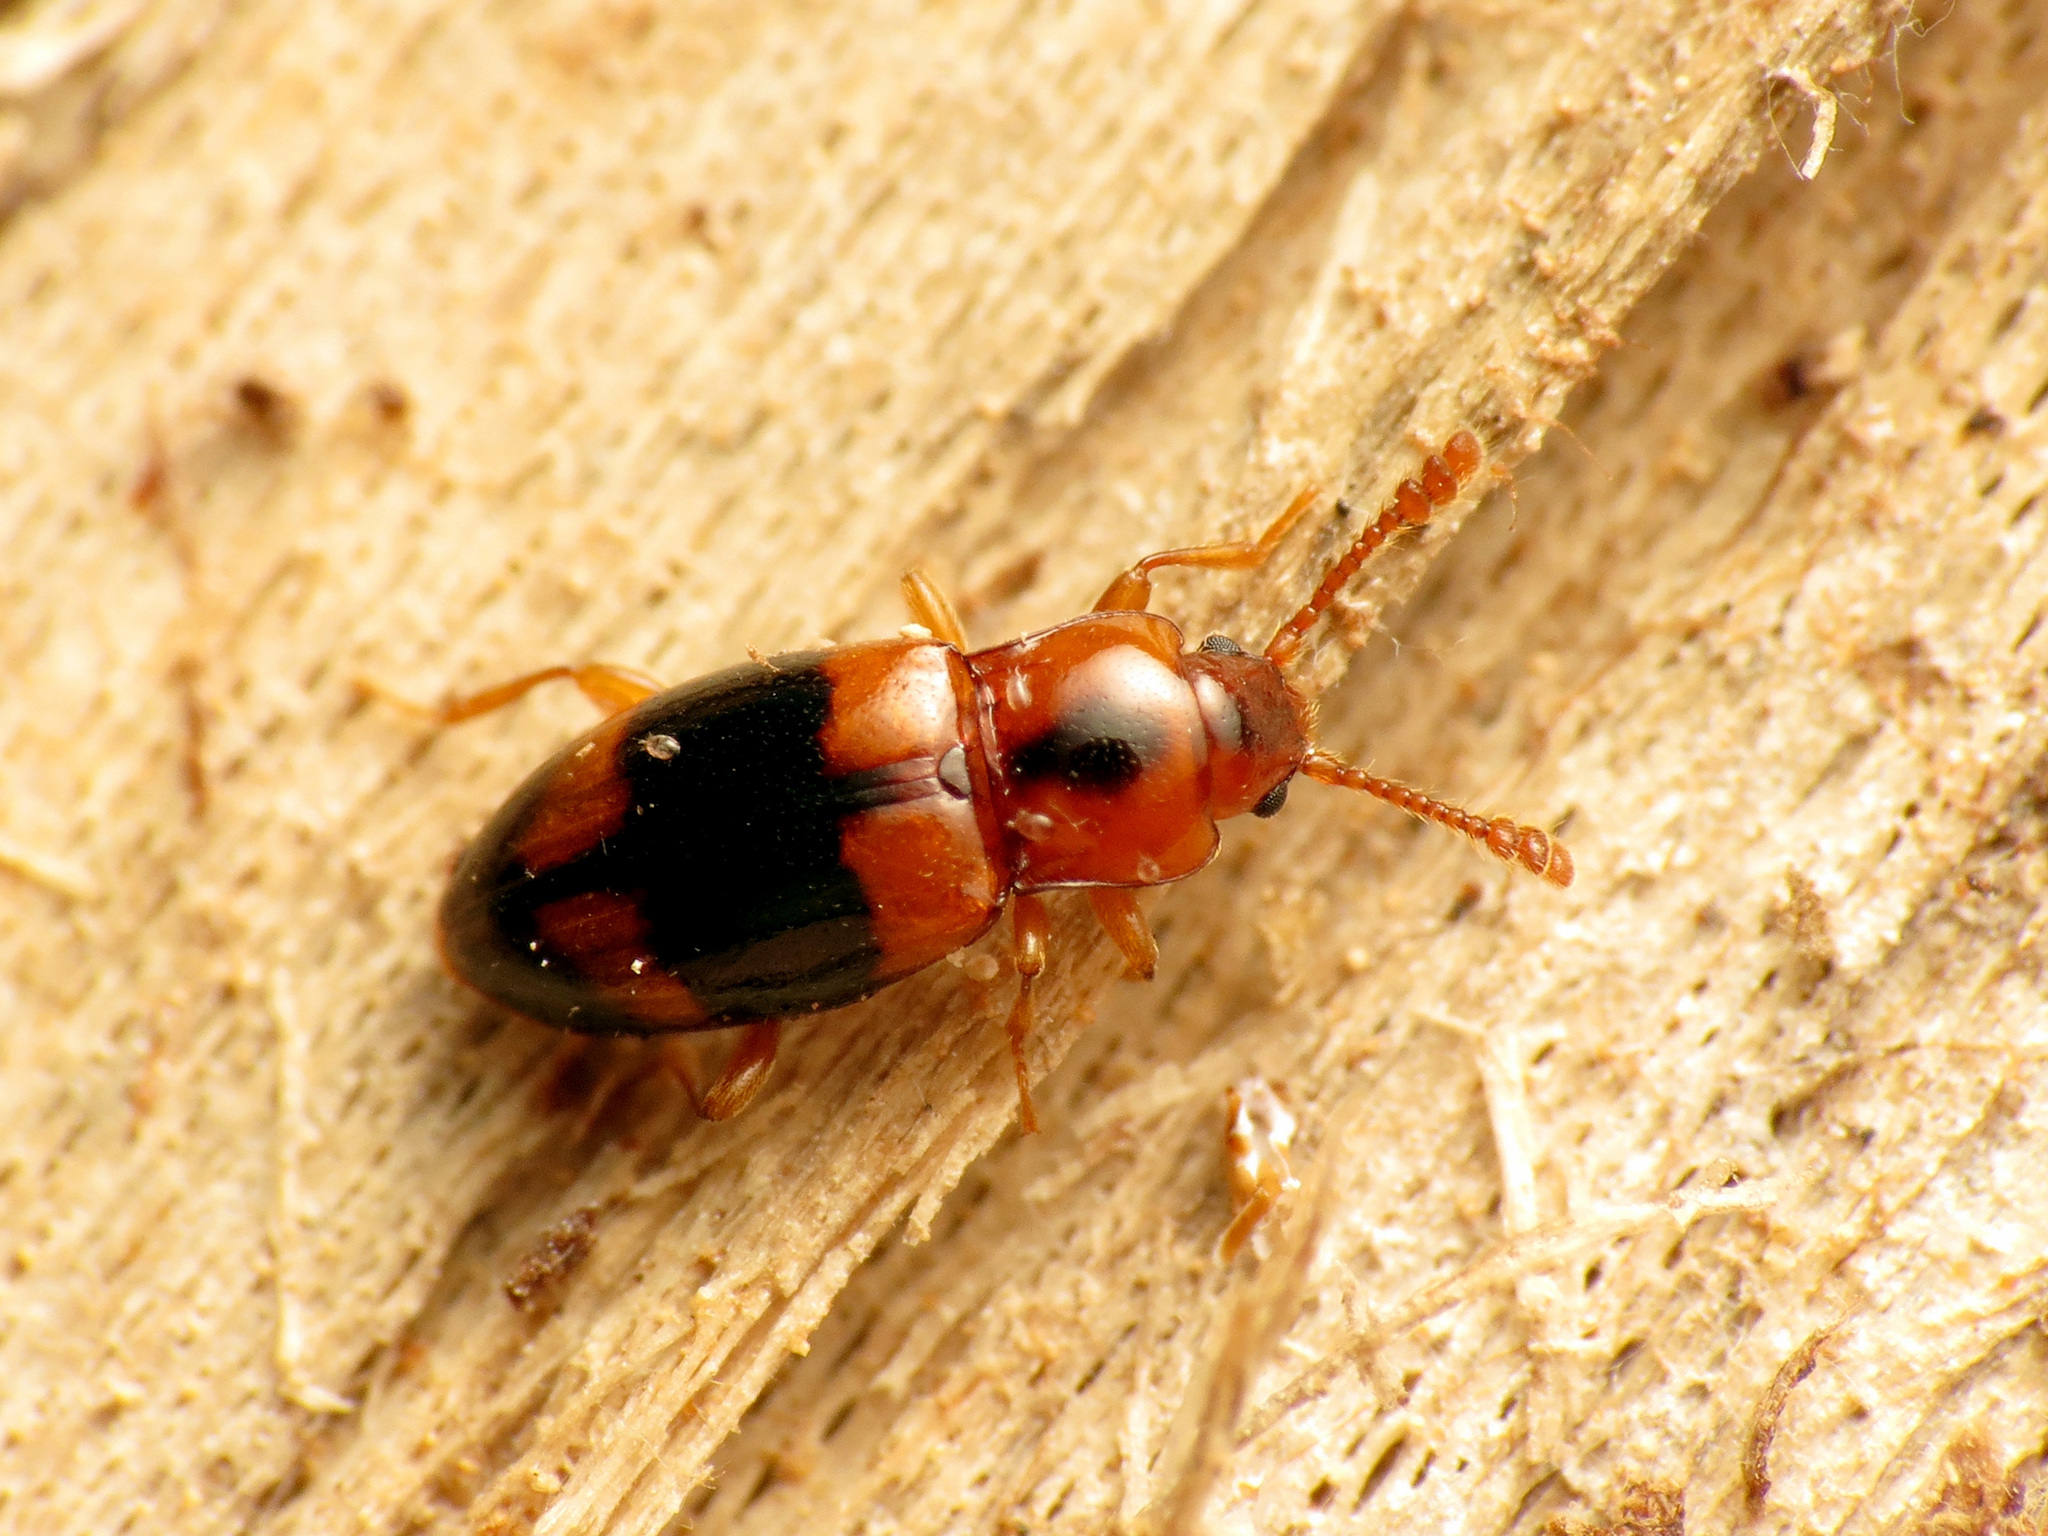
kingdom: Animalia
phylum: Arthropoda
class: Insecta
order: Coleoptera
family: Endomychidae
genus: Phymaphora
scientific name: Phymaphora pulchella
